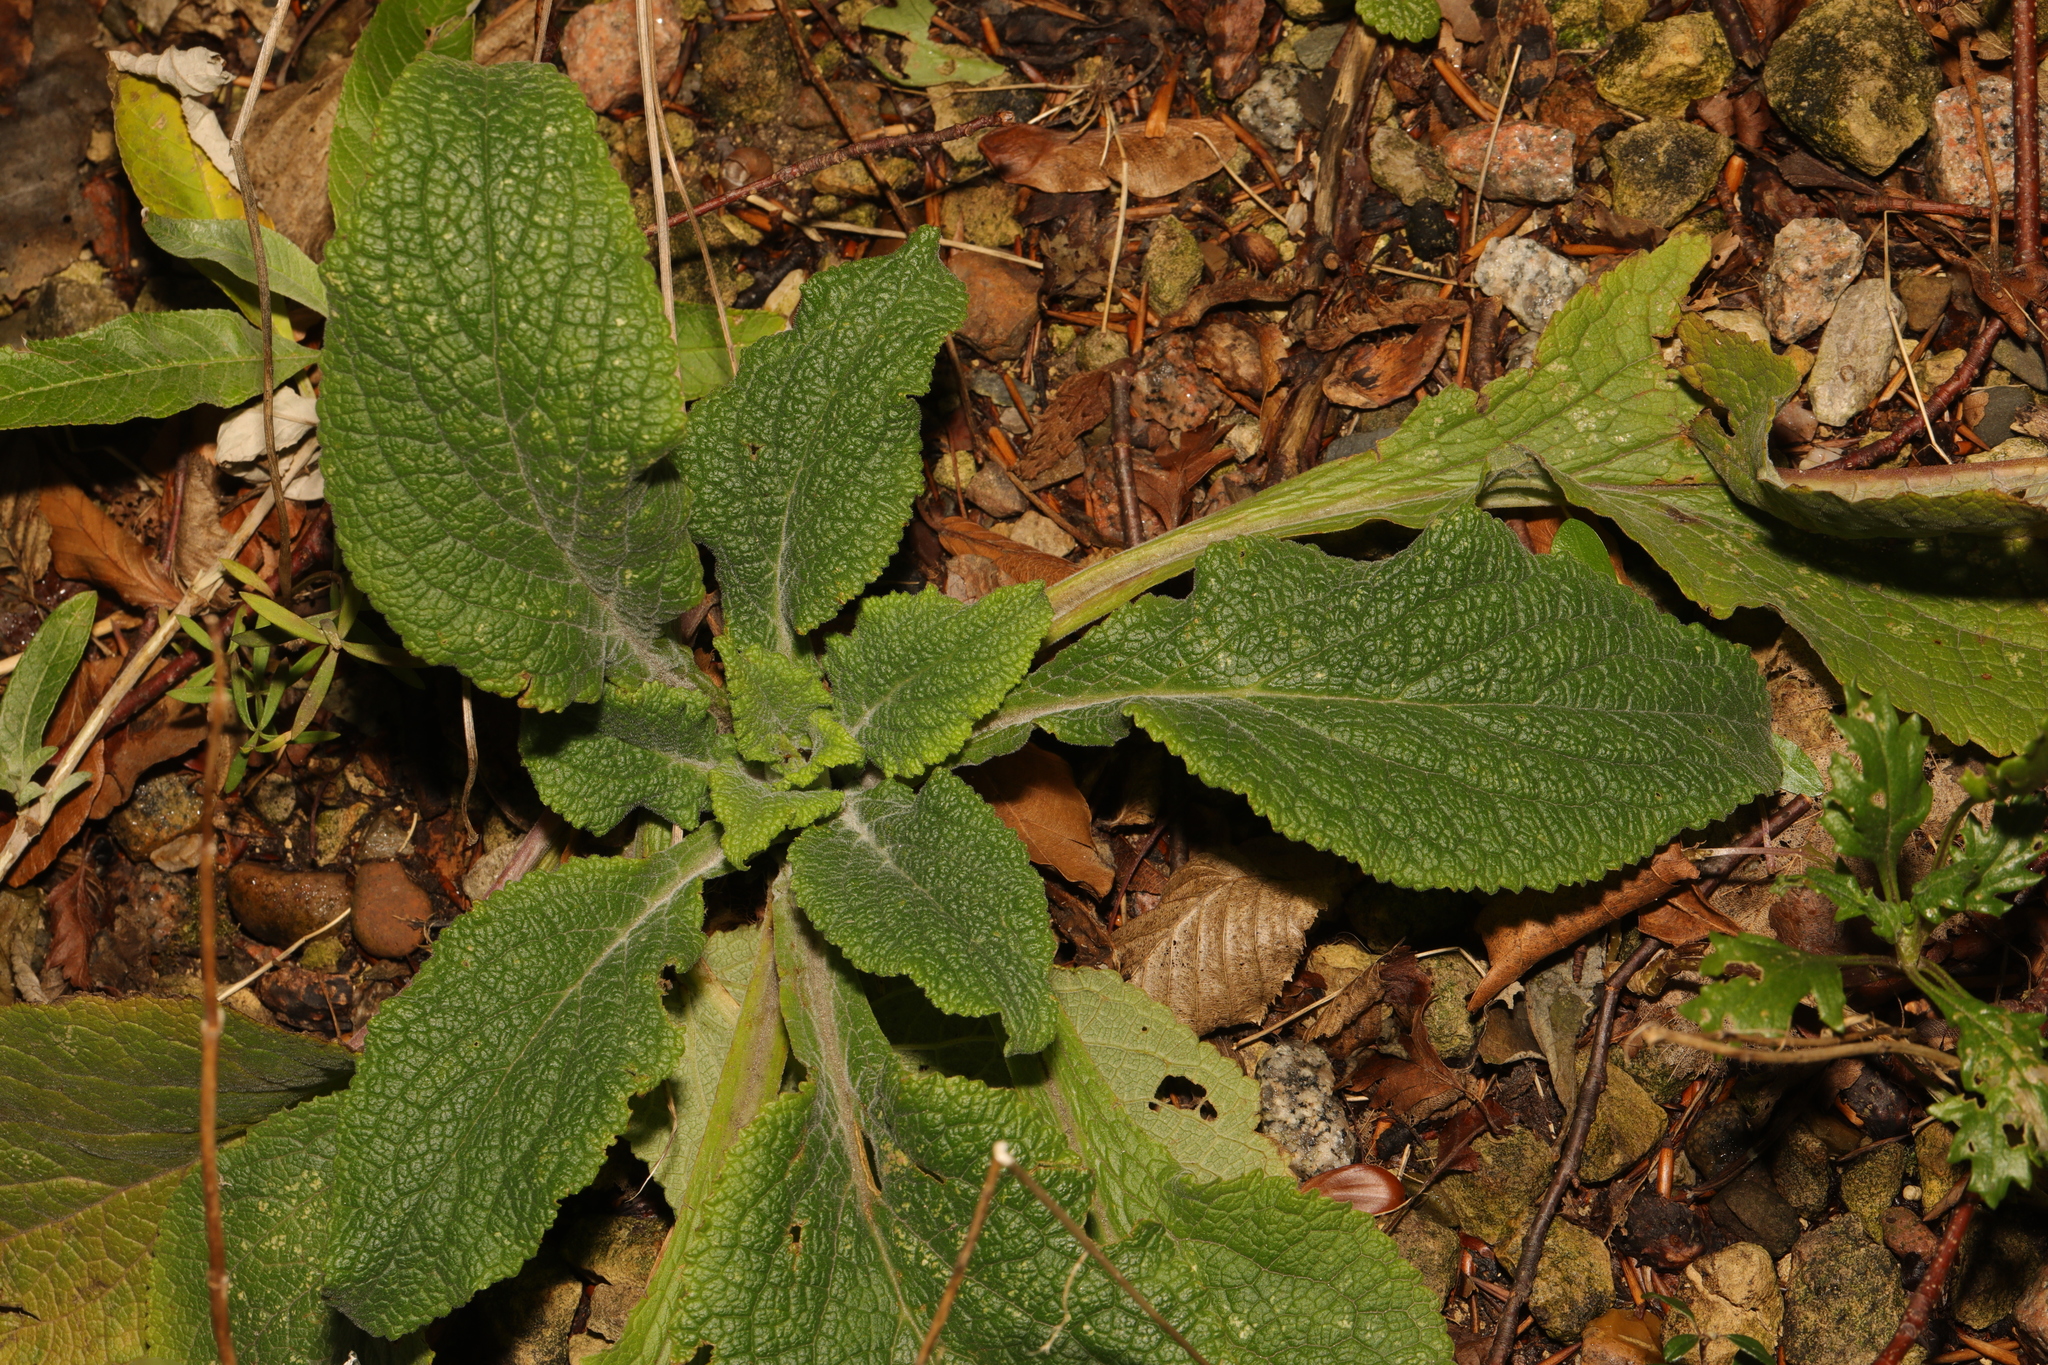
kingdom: Plantae
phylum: Tracheophyta
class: Magnoliopsida
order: Lamiales
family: Plantaginaceae
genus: Digitalis
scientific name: Digitalis purpurea
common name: Foxglove
